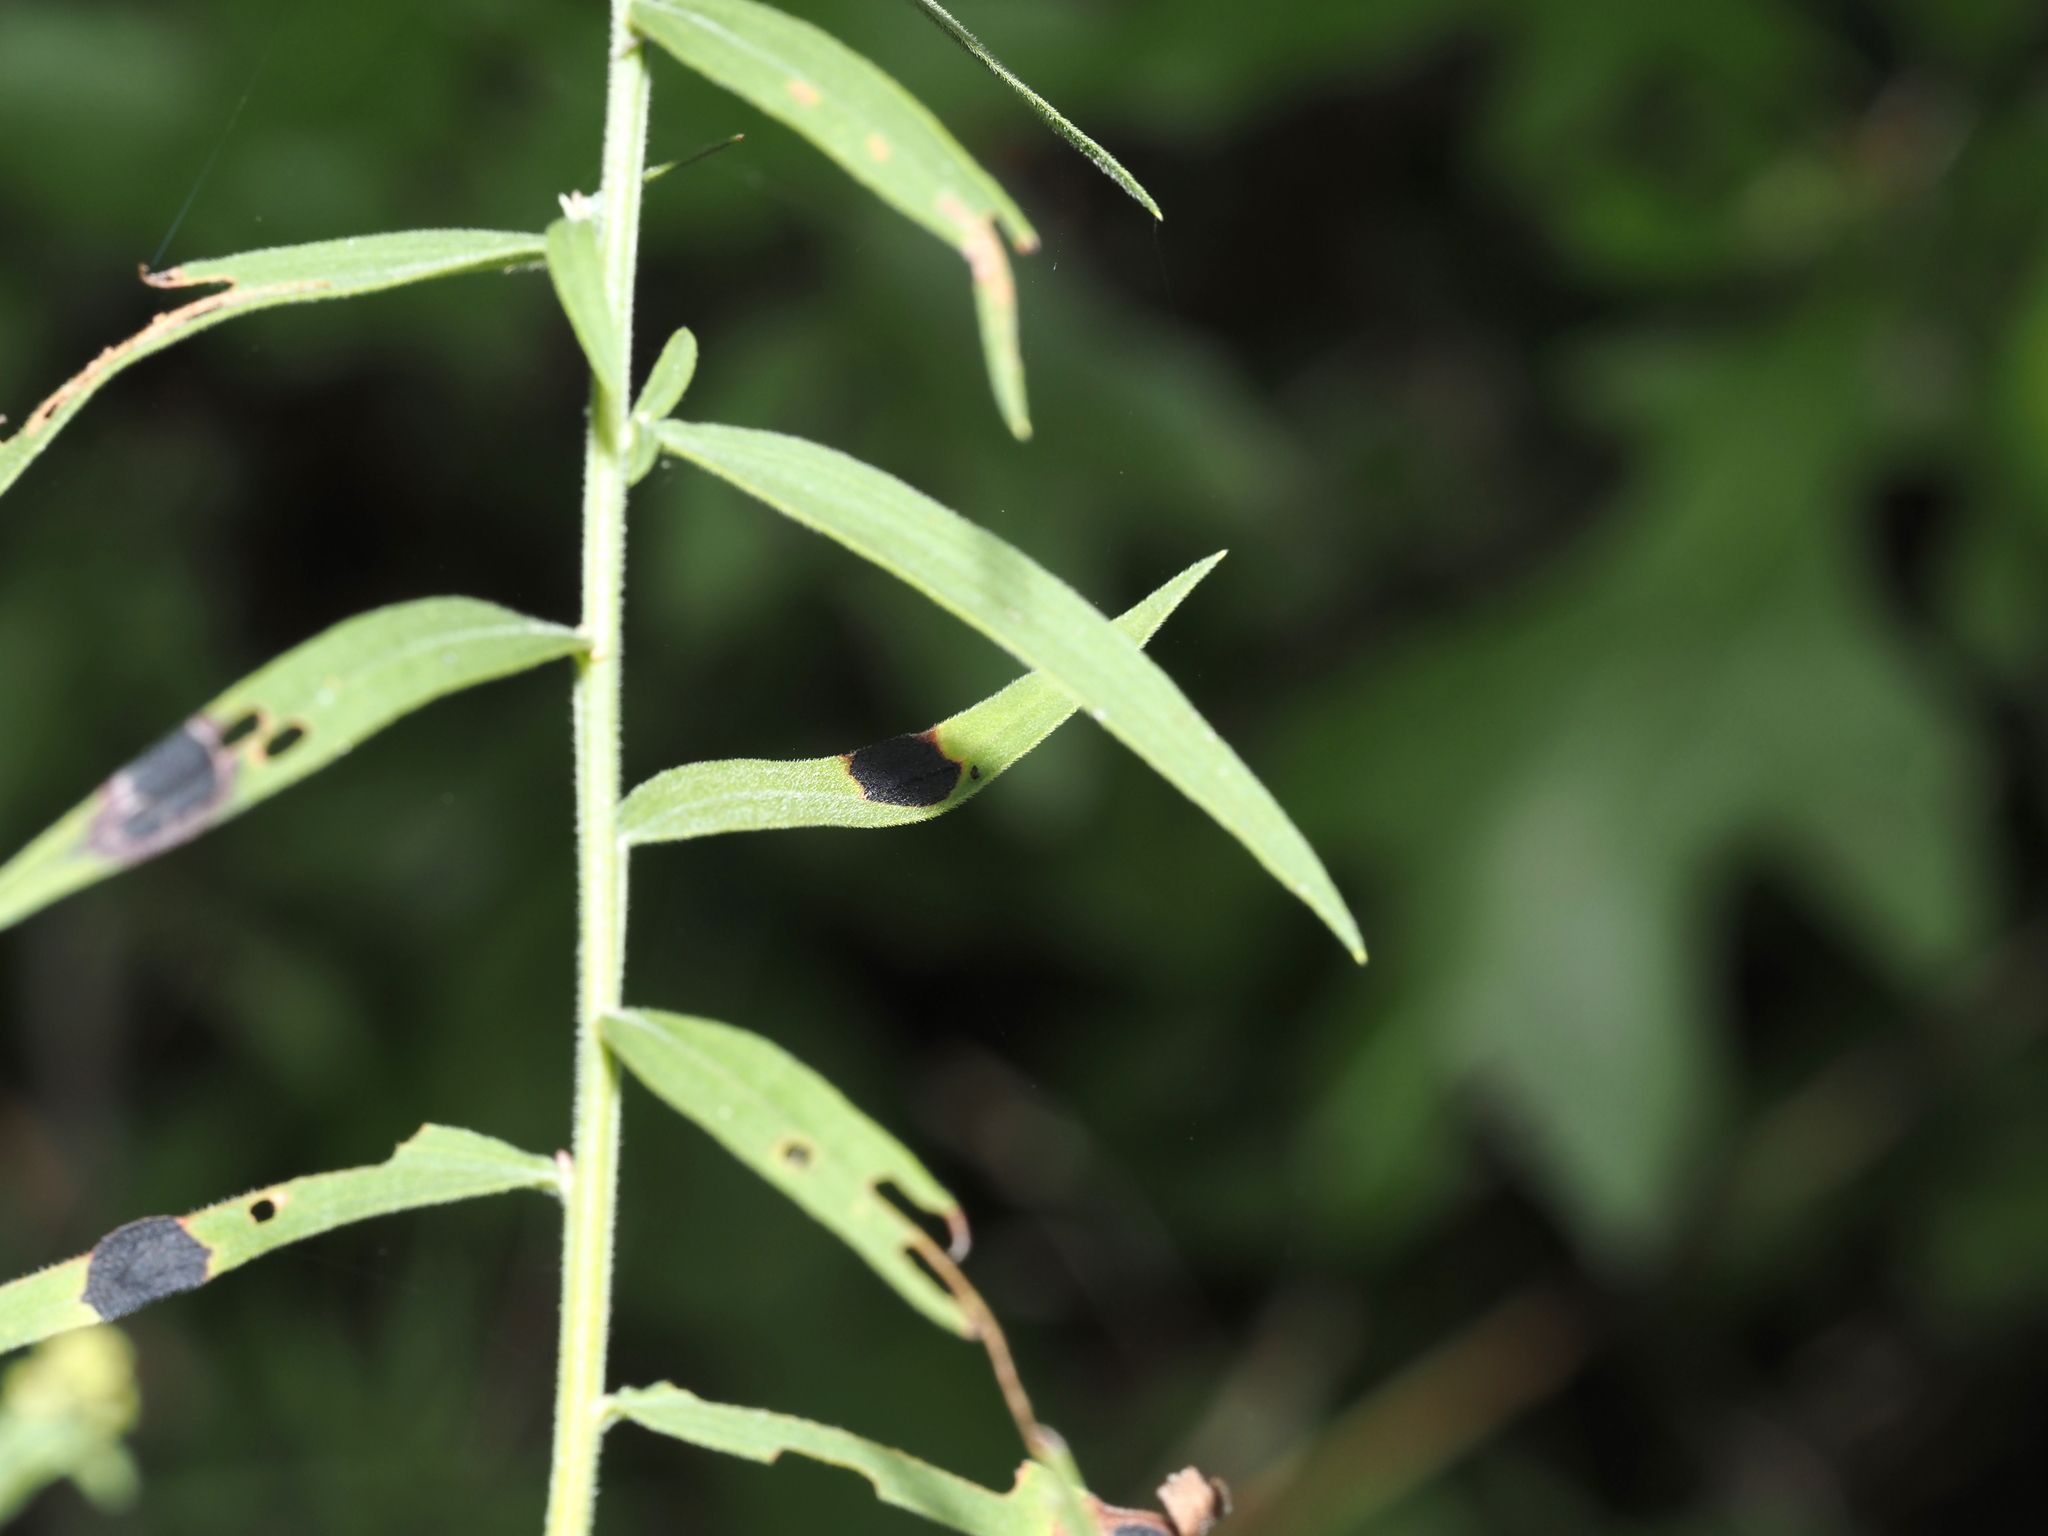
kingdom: Animalia
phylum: Arthropoda
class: Insecta
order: Diptera
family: Cecidomyiidae
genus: Asteromyia
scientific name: Asteromyia euthamiae
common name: Euthamia leaf gall midge
